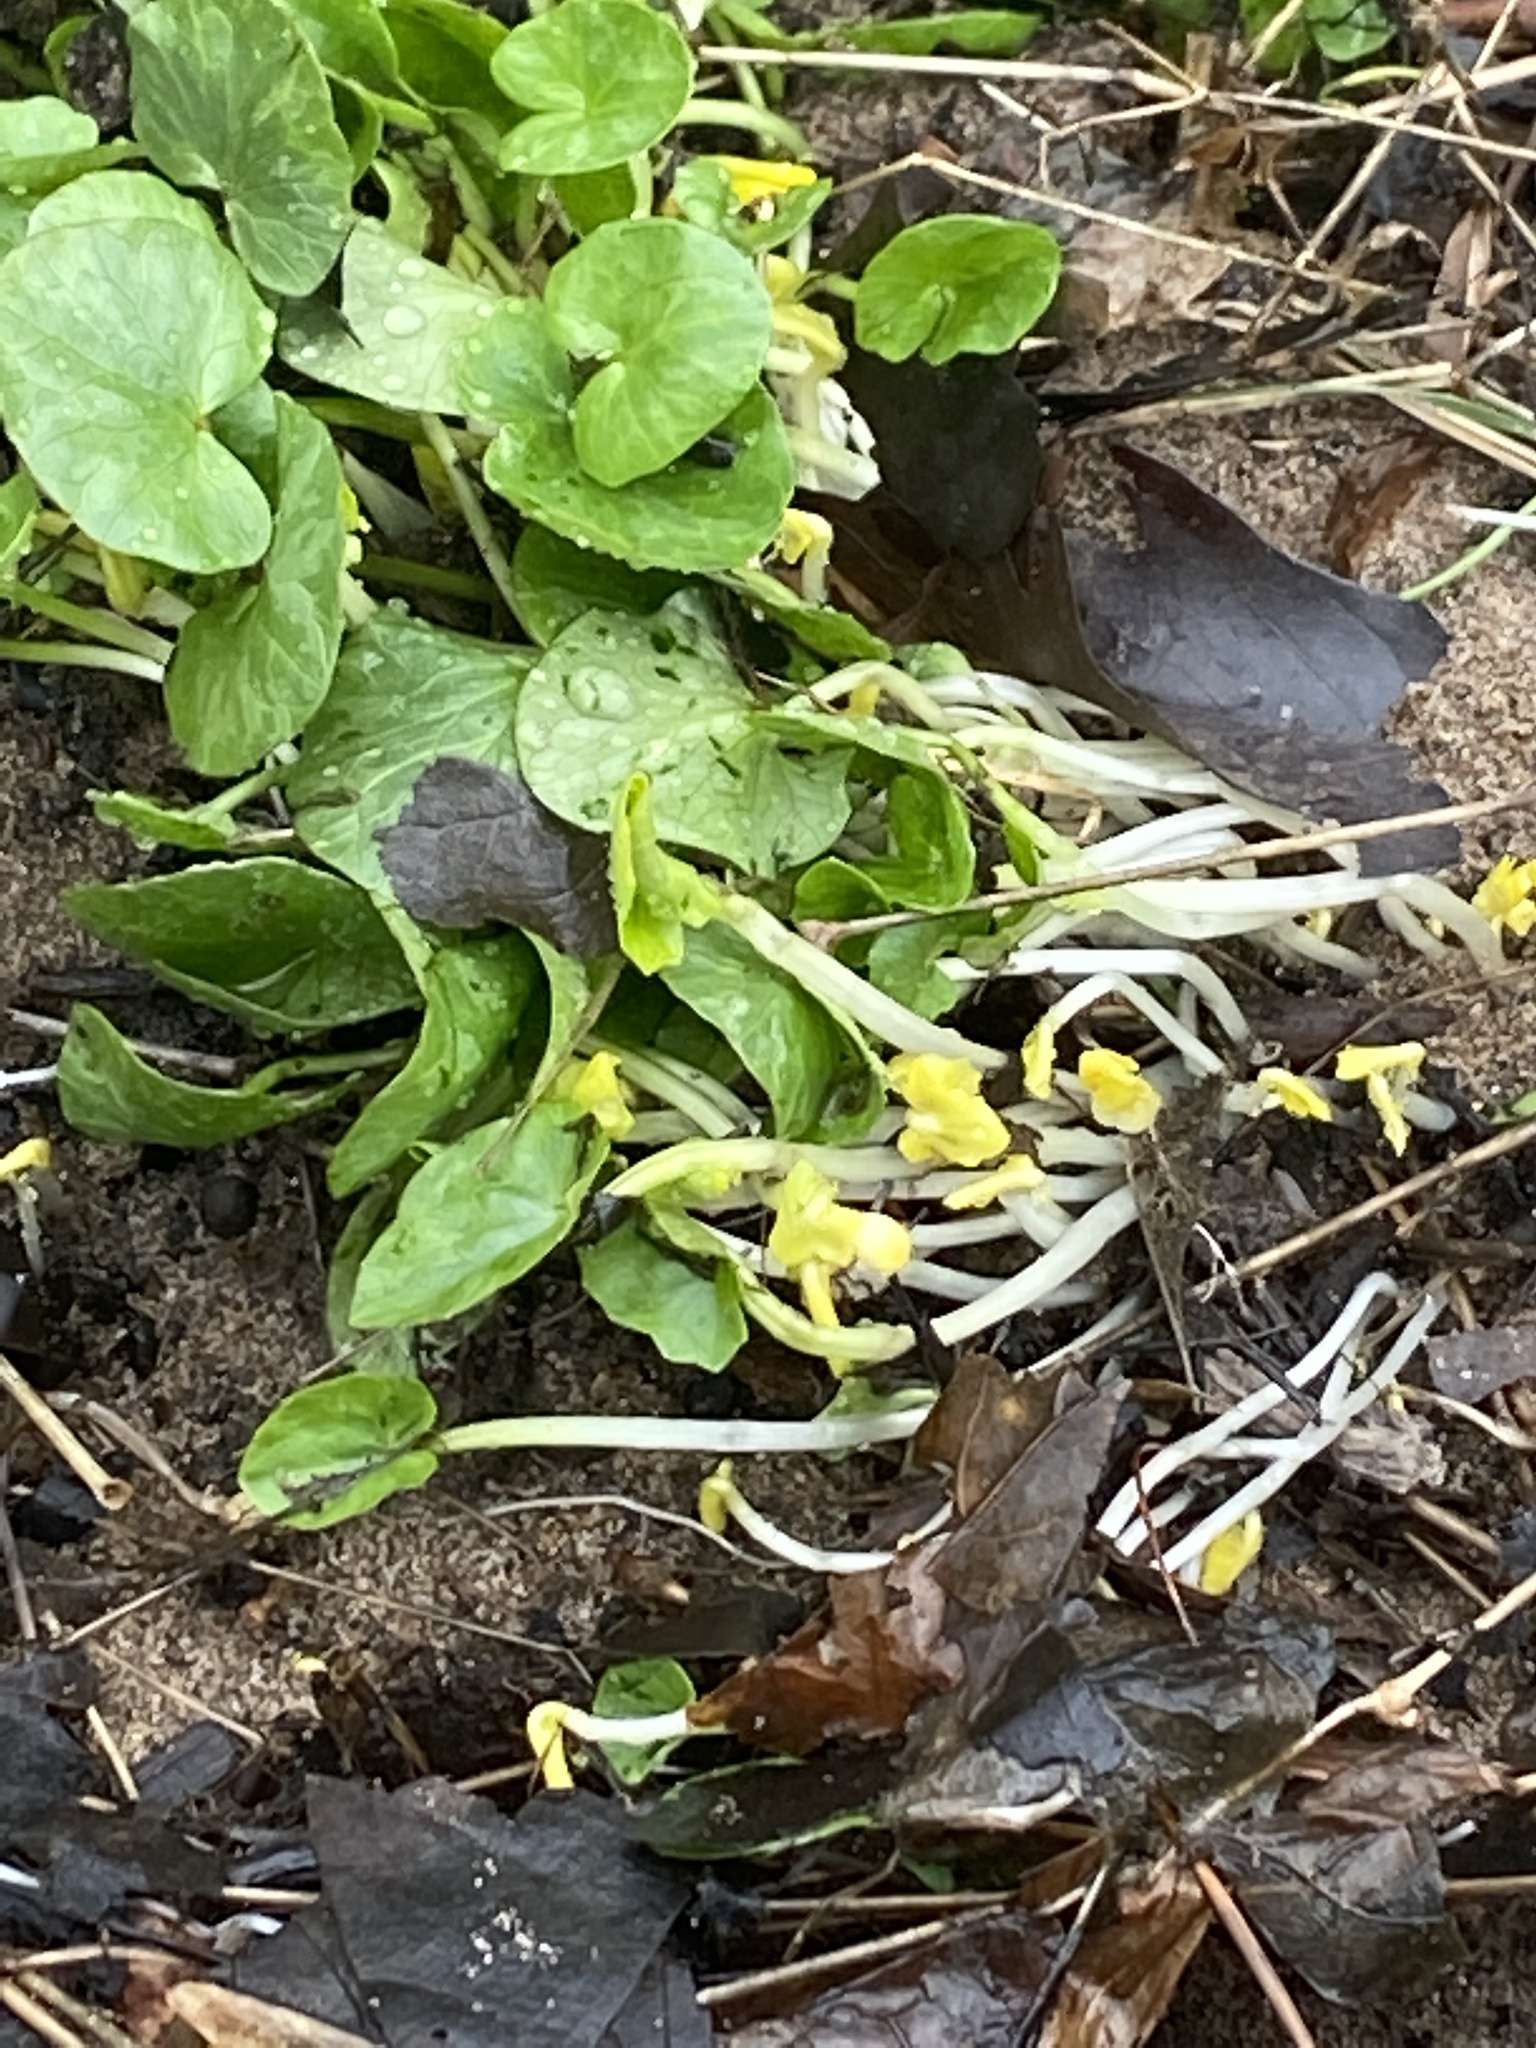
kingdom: Plantae
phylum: Tracheophyta
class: Magnoliopsida
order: Ranunculales
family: Ranunculaceae
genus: Ficaria
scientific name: Ficaria verna
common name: Lesser celandine
